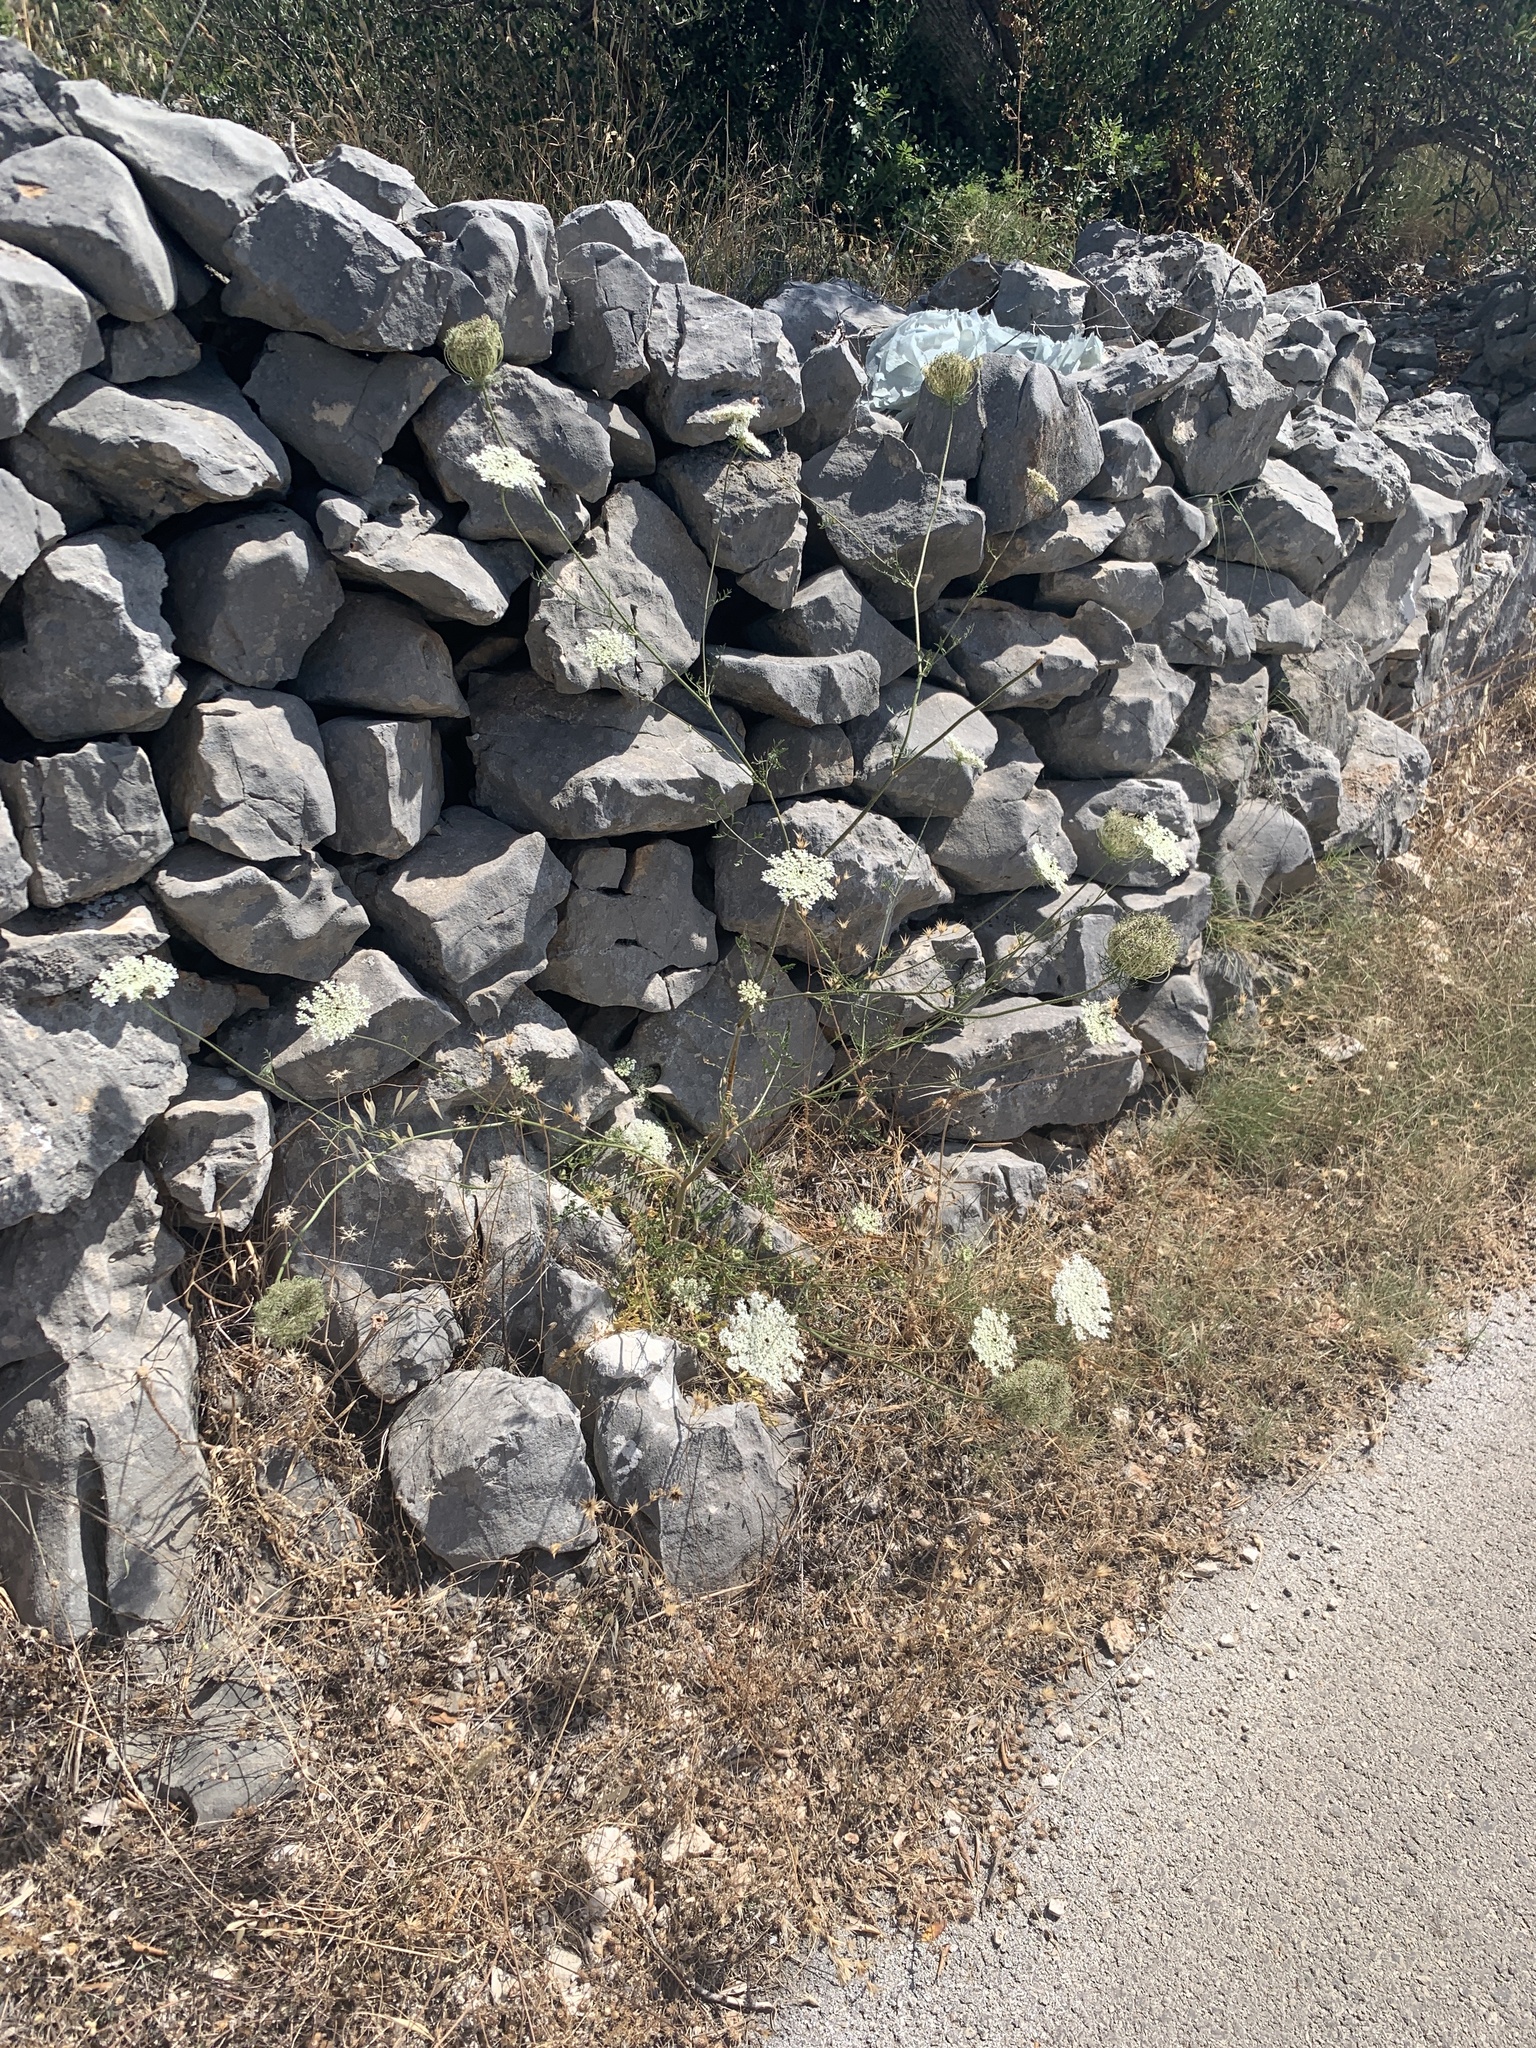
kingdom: Plantae
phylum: Tracheophyta
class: Magnoliopsida
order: Apiales
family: Apiaceae
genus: Daucus
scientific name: Daucus carota
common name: Wild carrot
